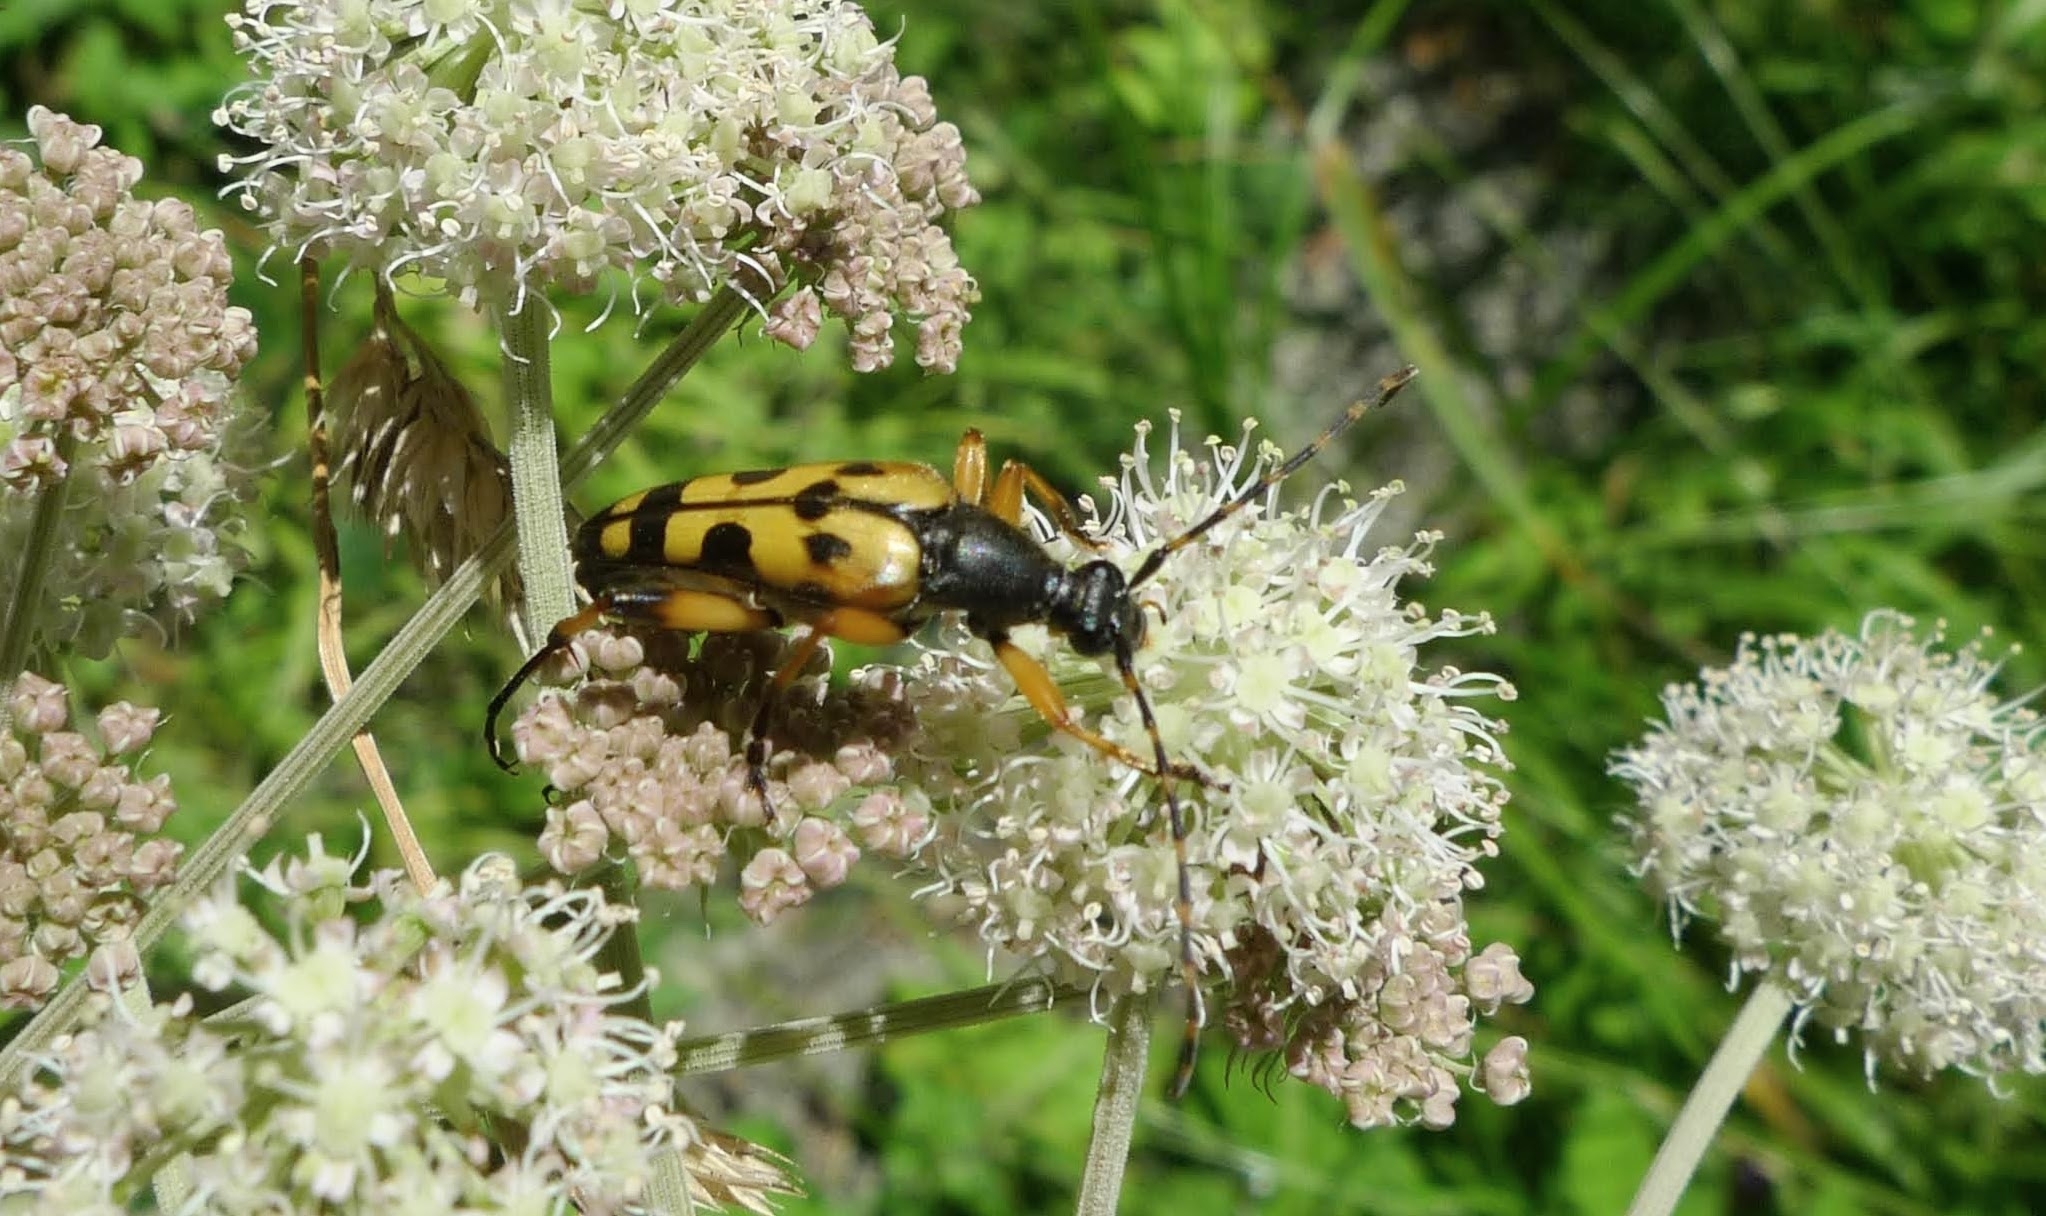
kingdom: Animalia
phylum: Arthropoda
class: Insecta
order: Coleoptera
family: Cerambycidae
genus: Rutpela
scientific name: Rutpela maculata
